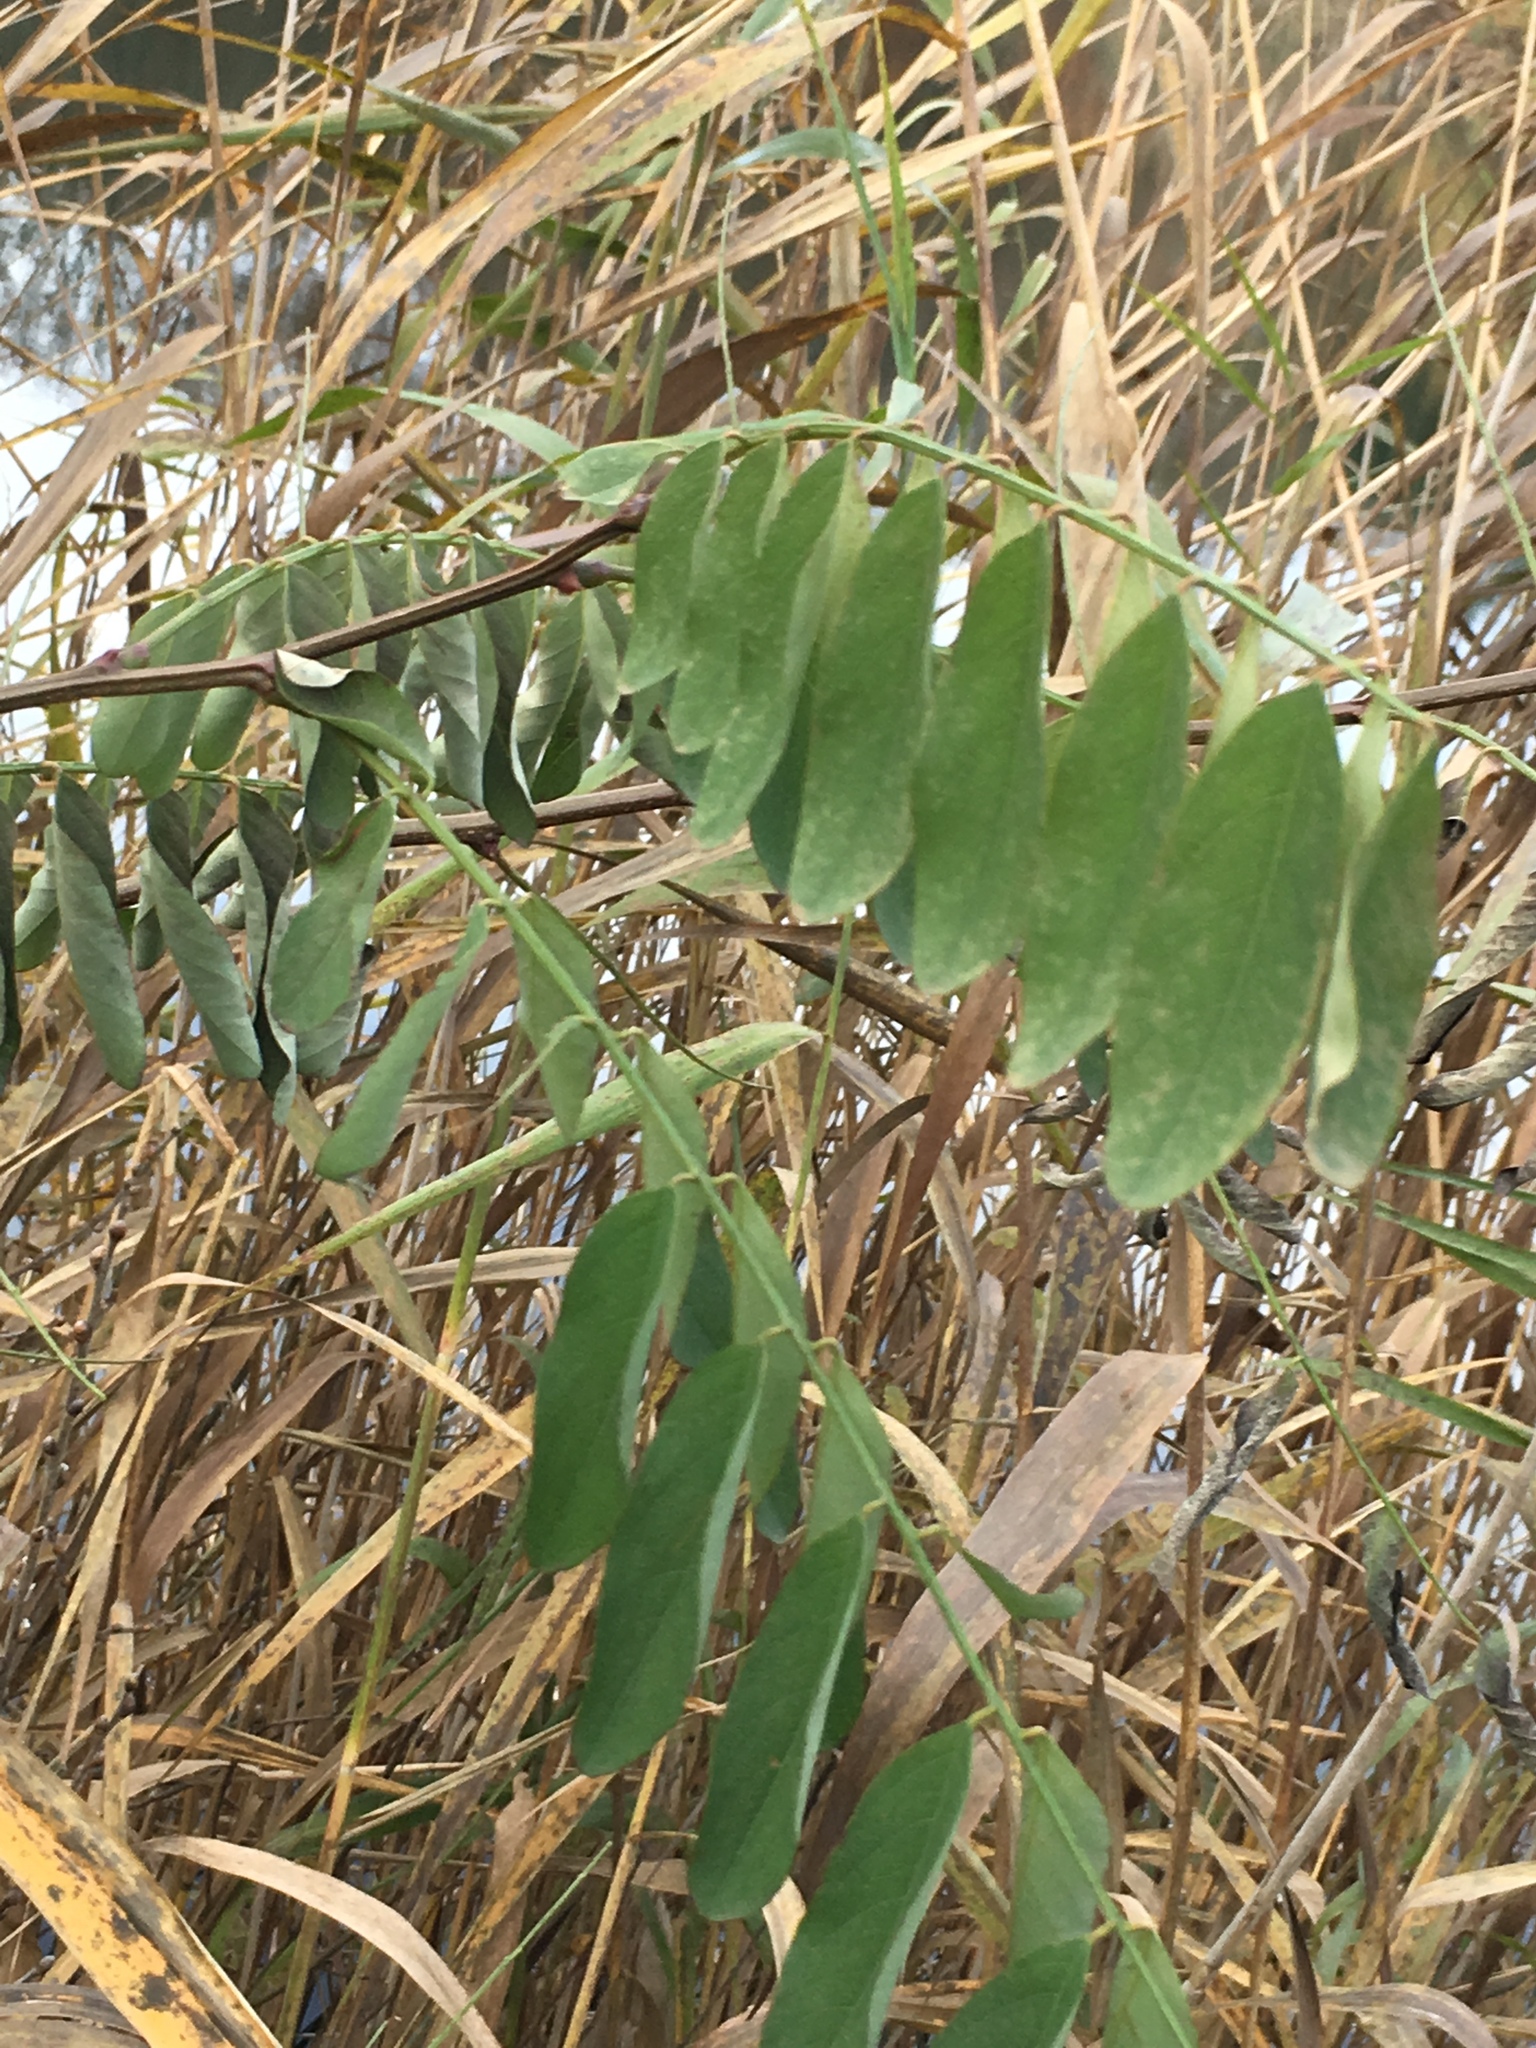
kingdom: Plantae
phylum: Tracheophyta
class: Magnoliopsida
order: Fabales
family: Fabaceae
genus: Robinia
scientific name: Robinia pseudoacacia
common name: Black locust
